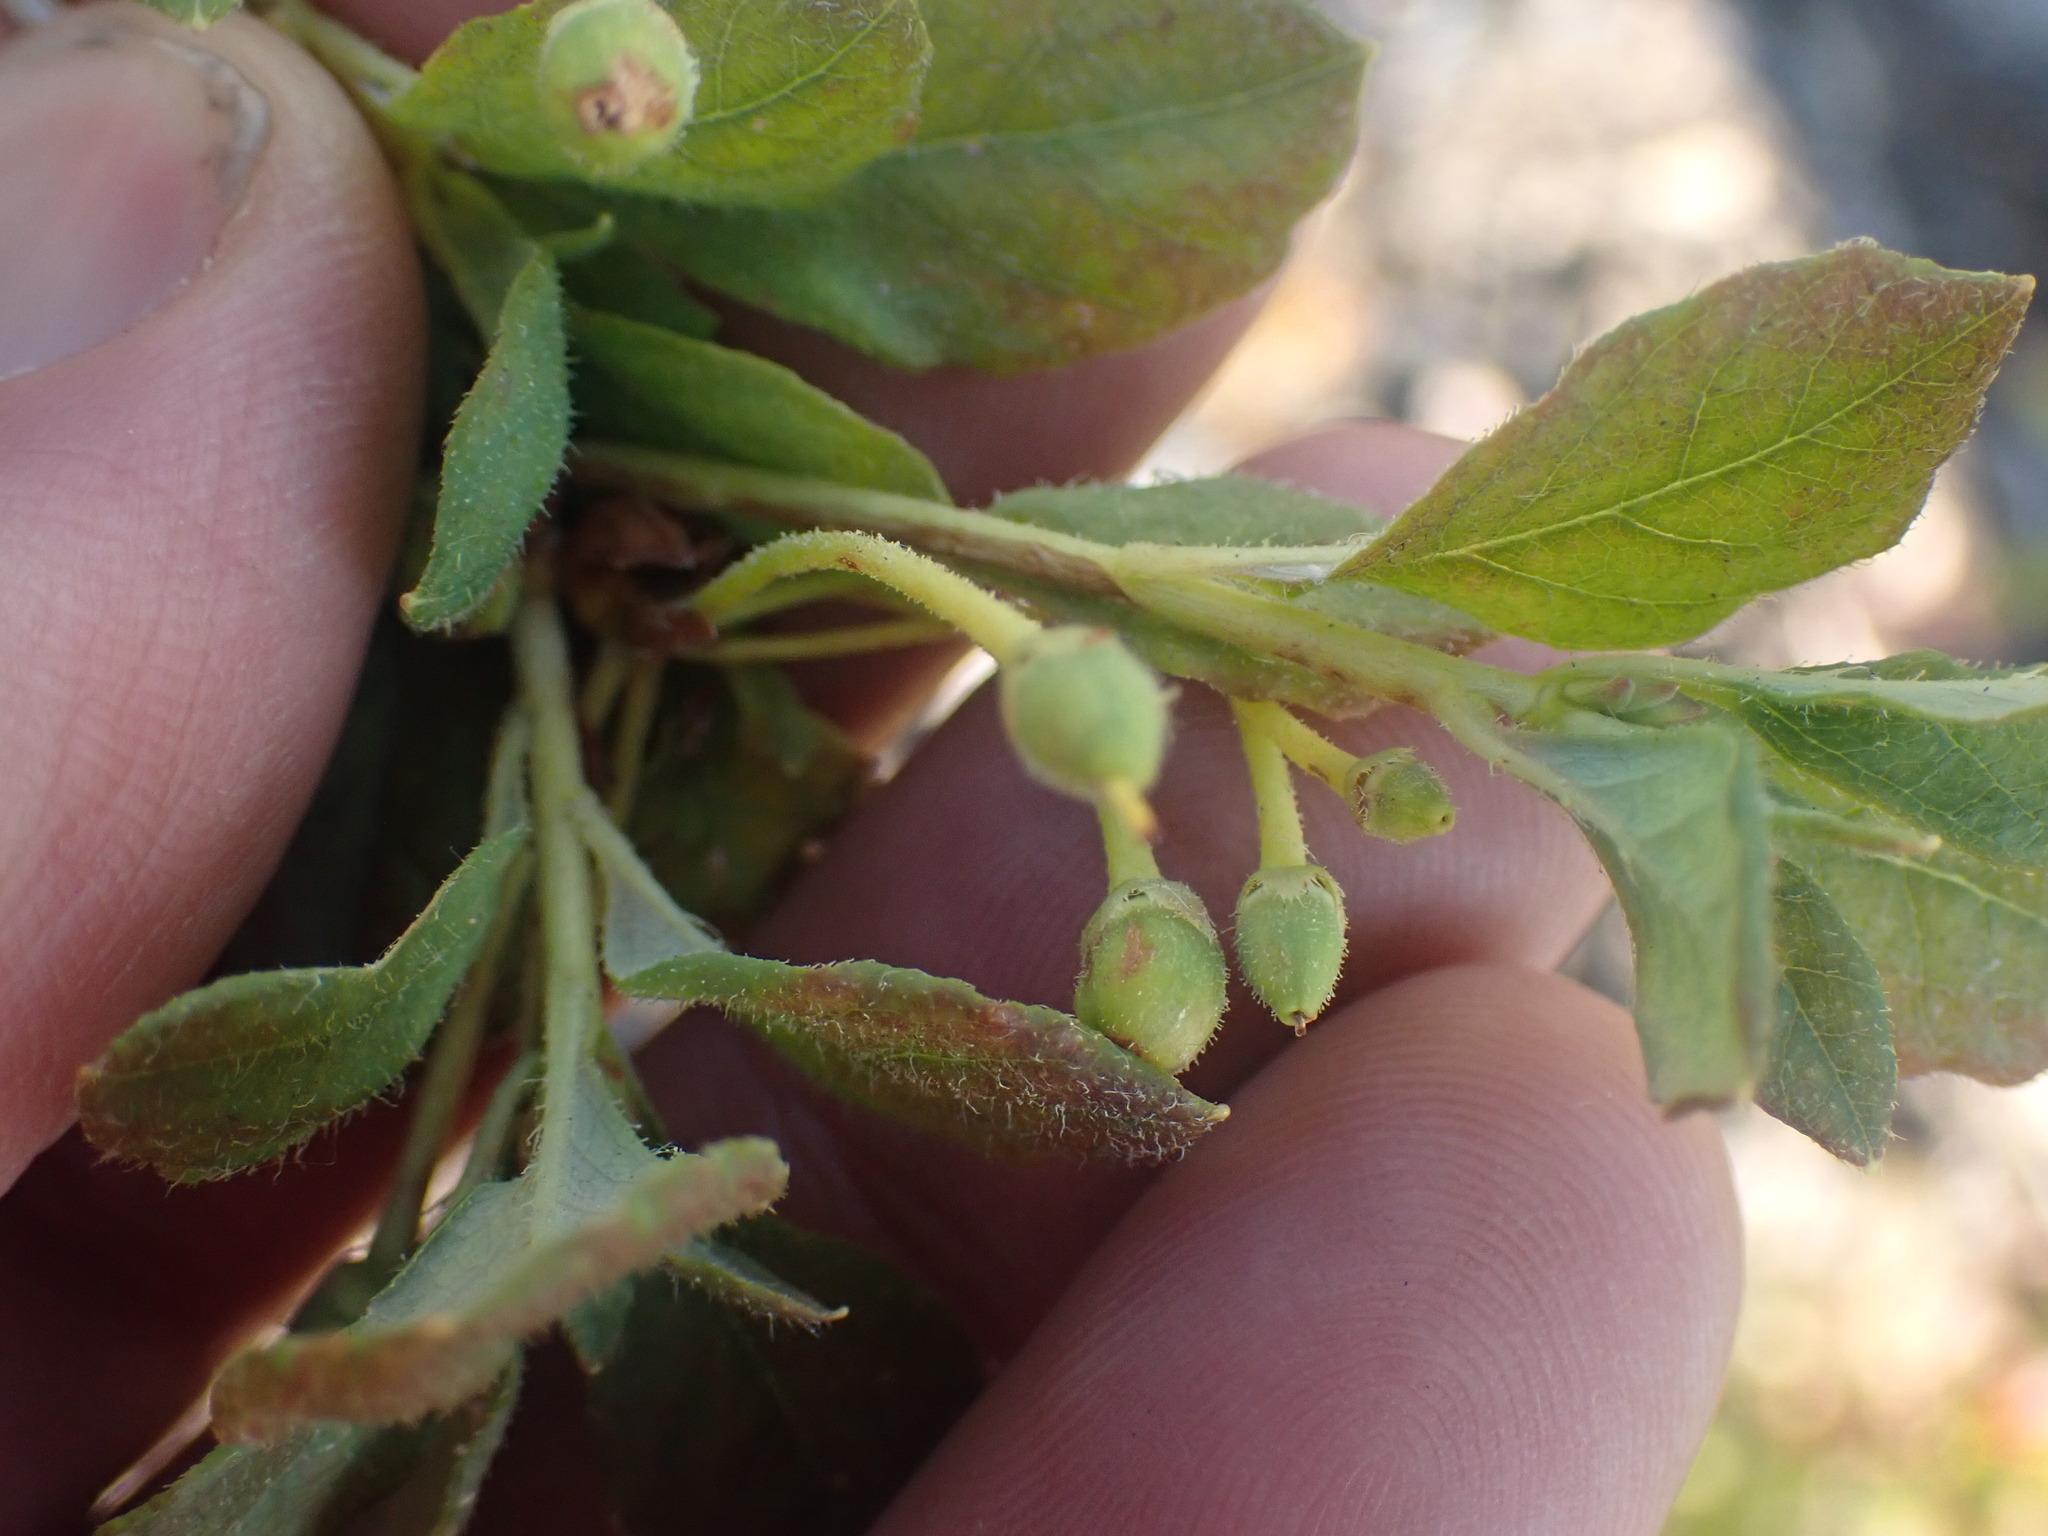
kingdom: Plantae
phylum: Tracheophyta
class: Magnoliopsida
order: Ericales
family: Ericaceae
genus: Rhododendron
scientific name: Rhododendron menziesii
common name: Pacific menziesia
